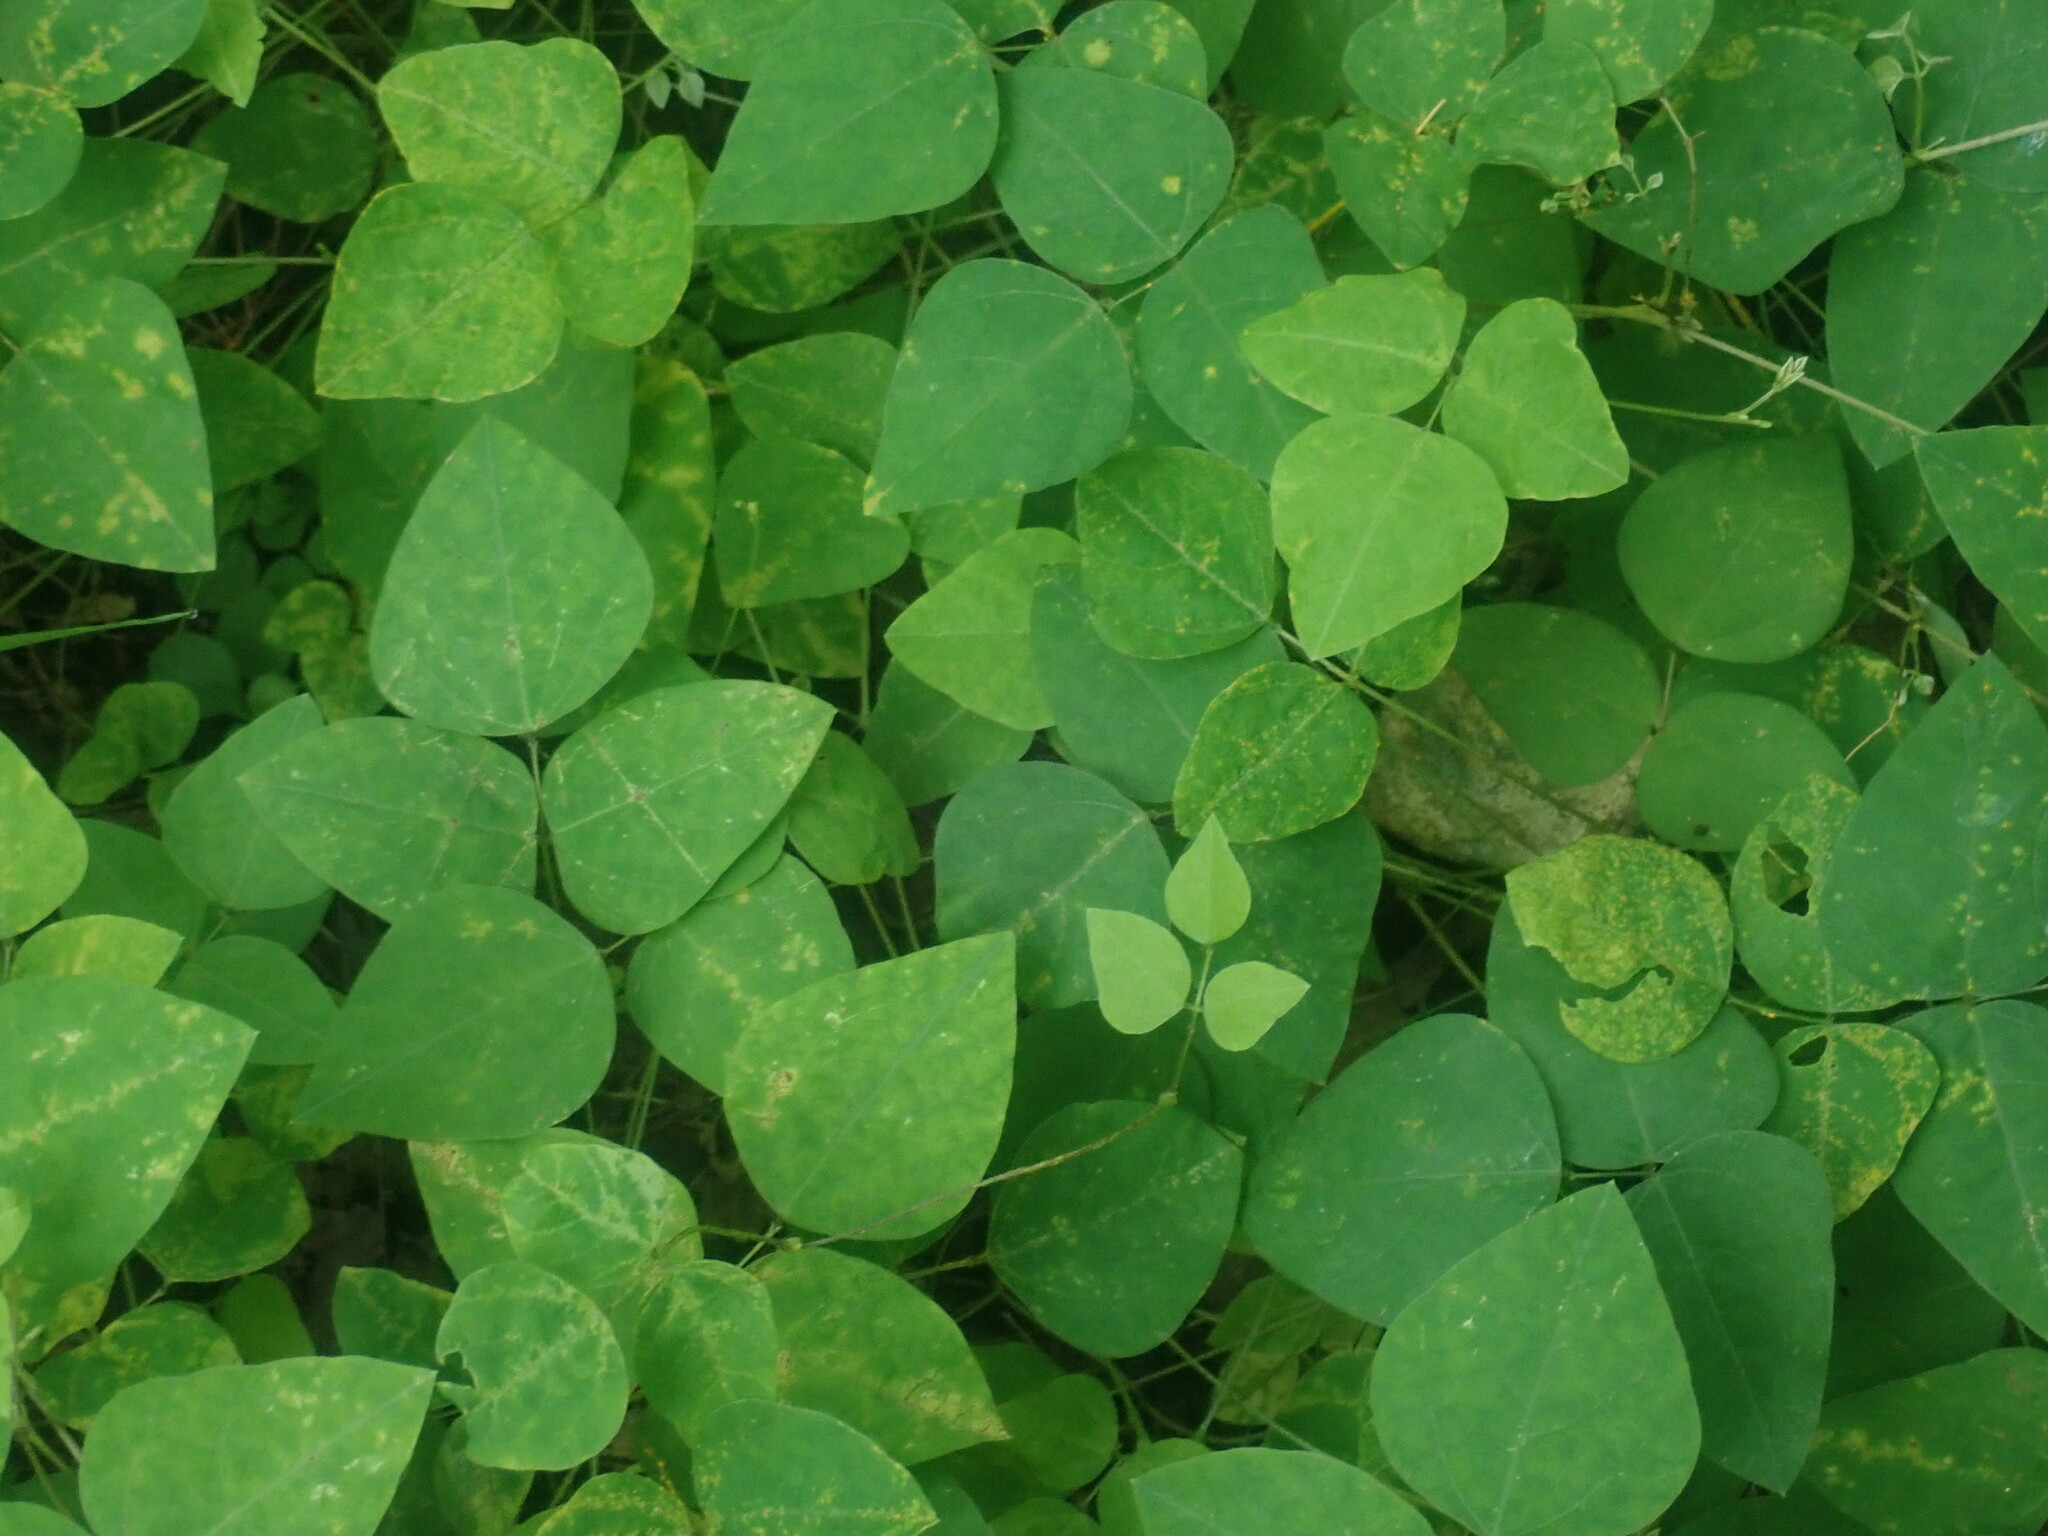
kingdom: Plantae
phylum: Tracheophyta
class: Magnoliopsida
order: Fabales
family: Fabaceae
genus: Amphicarpaea
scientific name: Amphicarpaea bracteata
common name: American hog peanut
